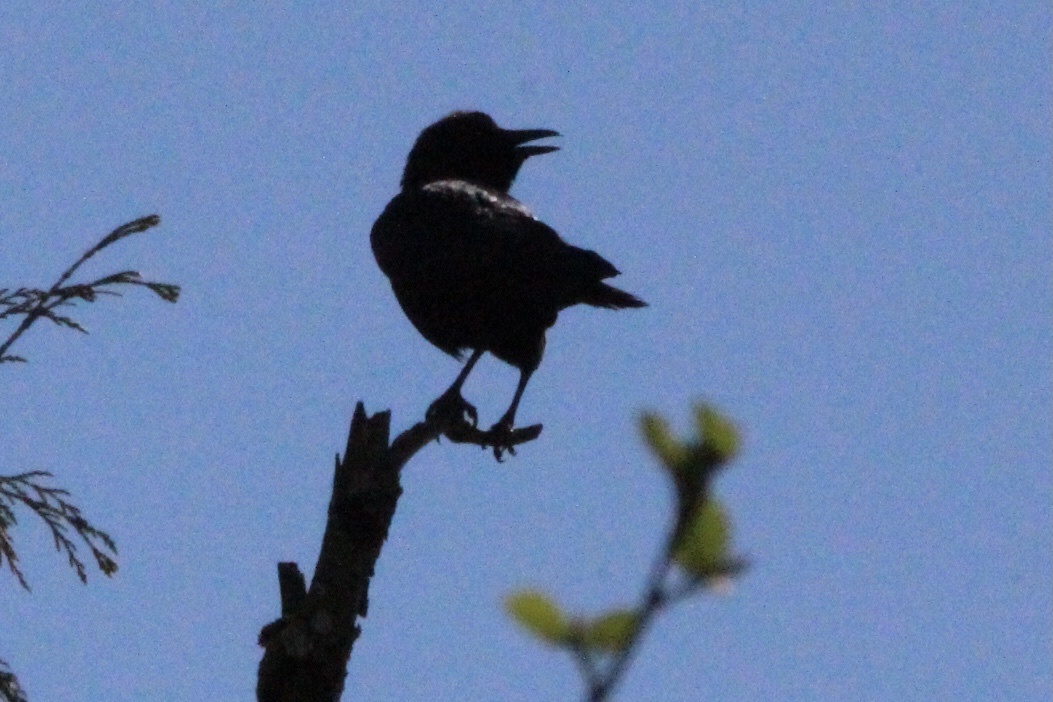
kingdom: Animalia
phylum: Chordata
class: Aves
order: Passeriformes
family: Corvidae
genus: Corvus
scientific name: Corvus brachyrhynchos
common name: American crow
